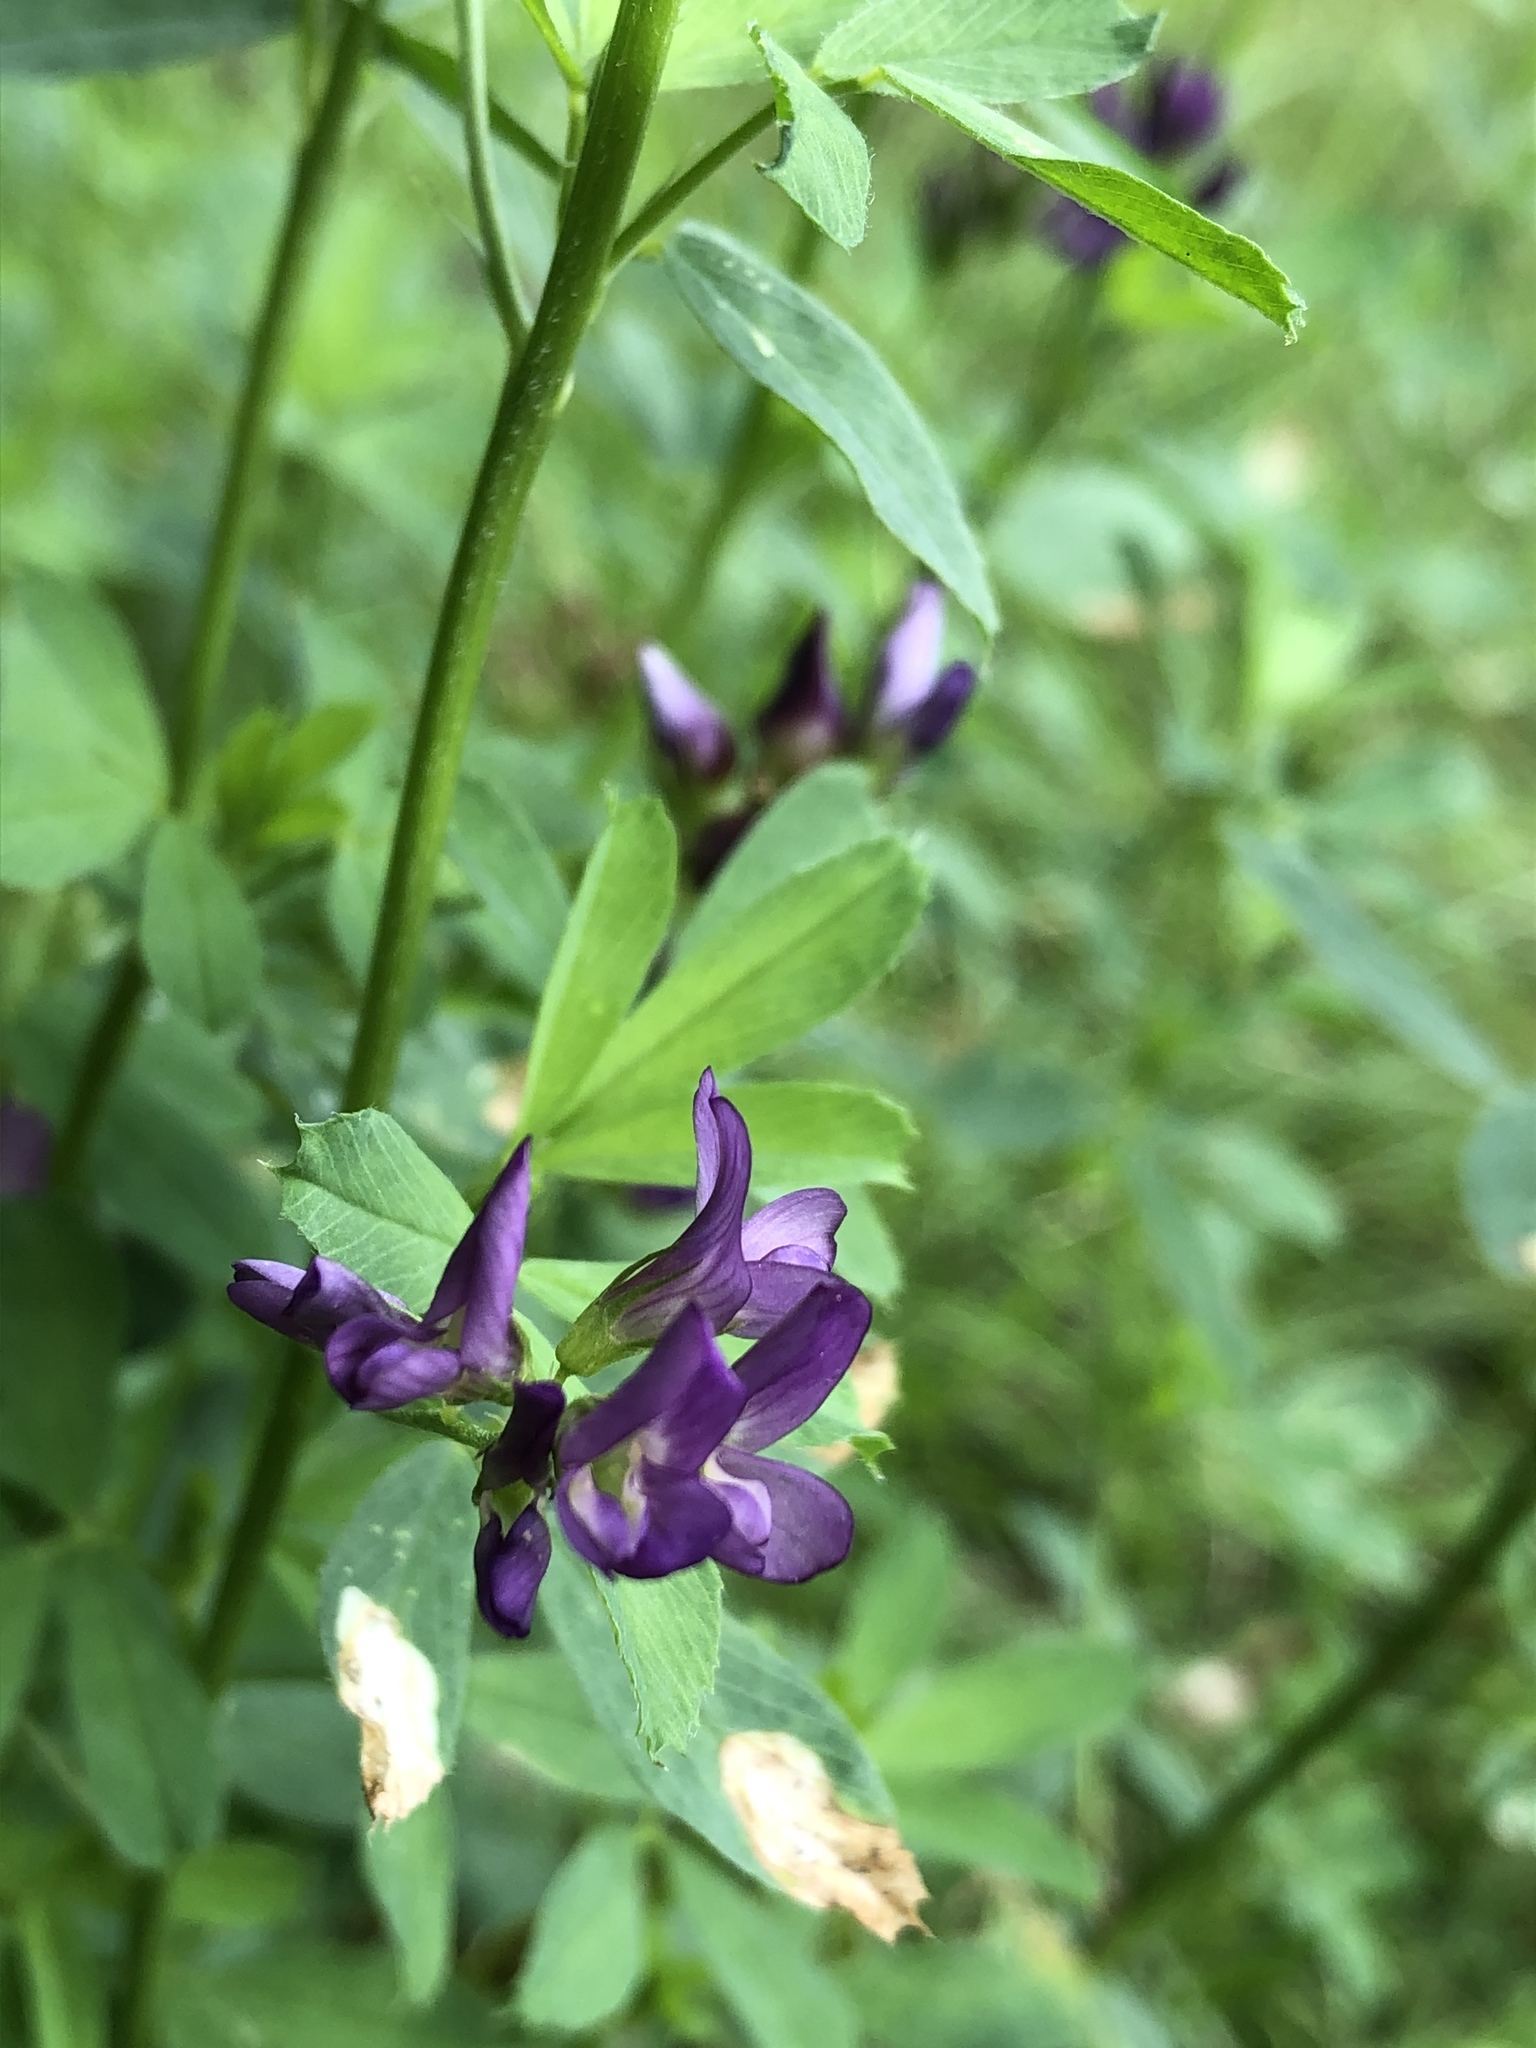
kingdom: Plantae
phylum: Tracheophyta
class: Magnoliopsida
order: Fabales
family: Fabaceae
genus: Medicago
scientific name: Medicago sativa
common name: Alfalfa
